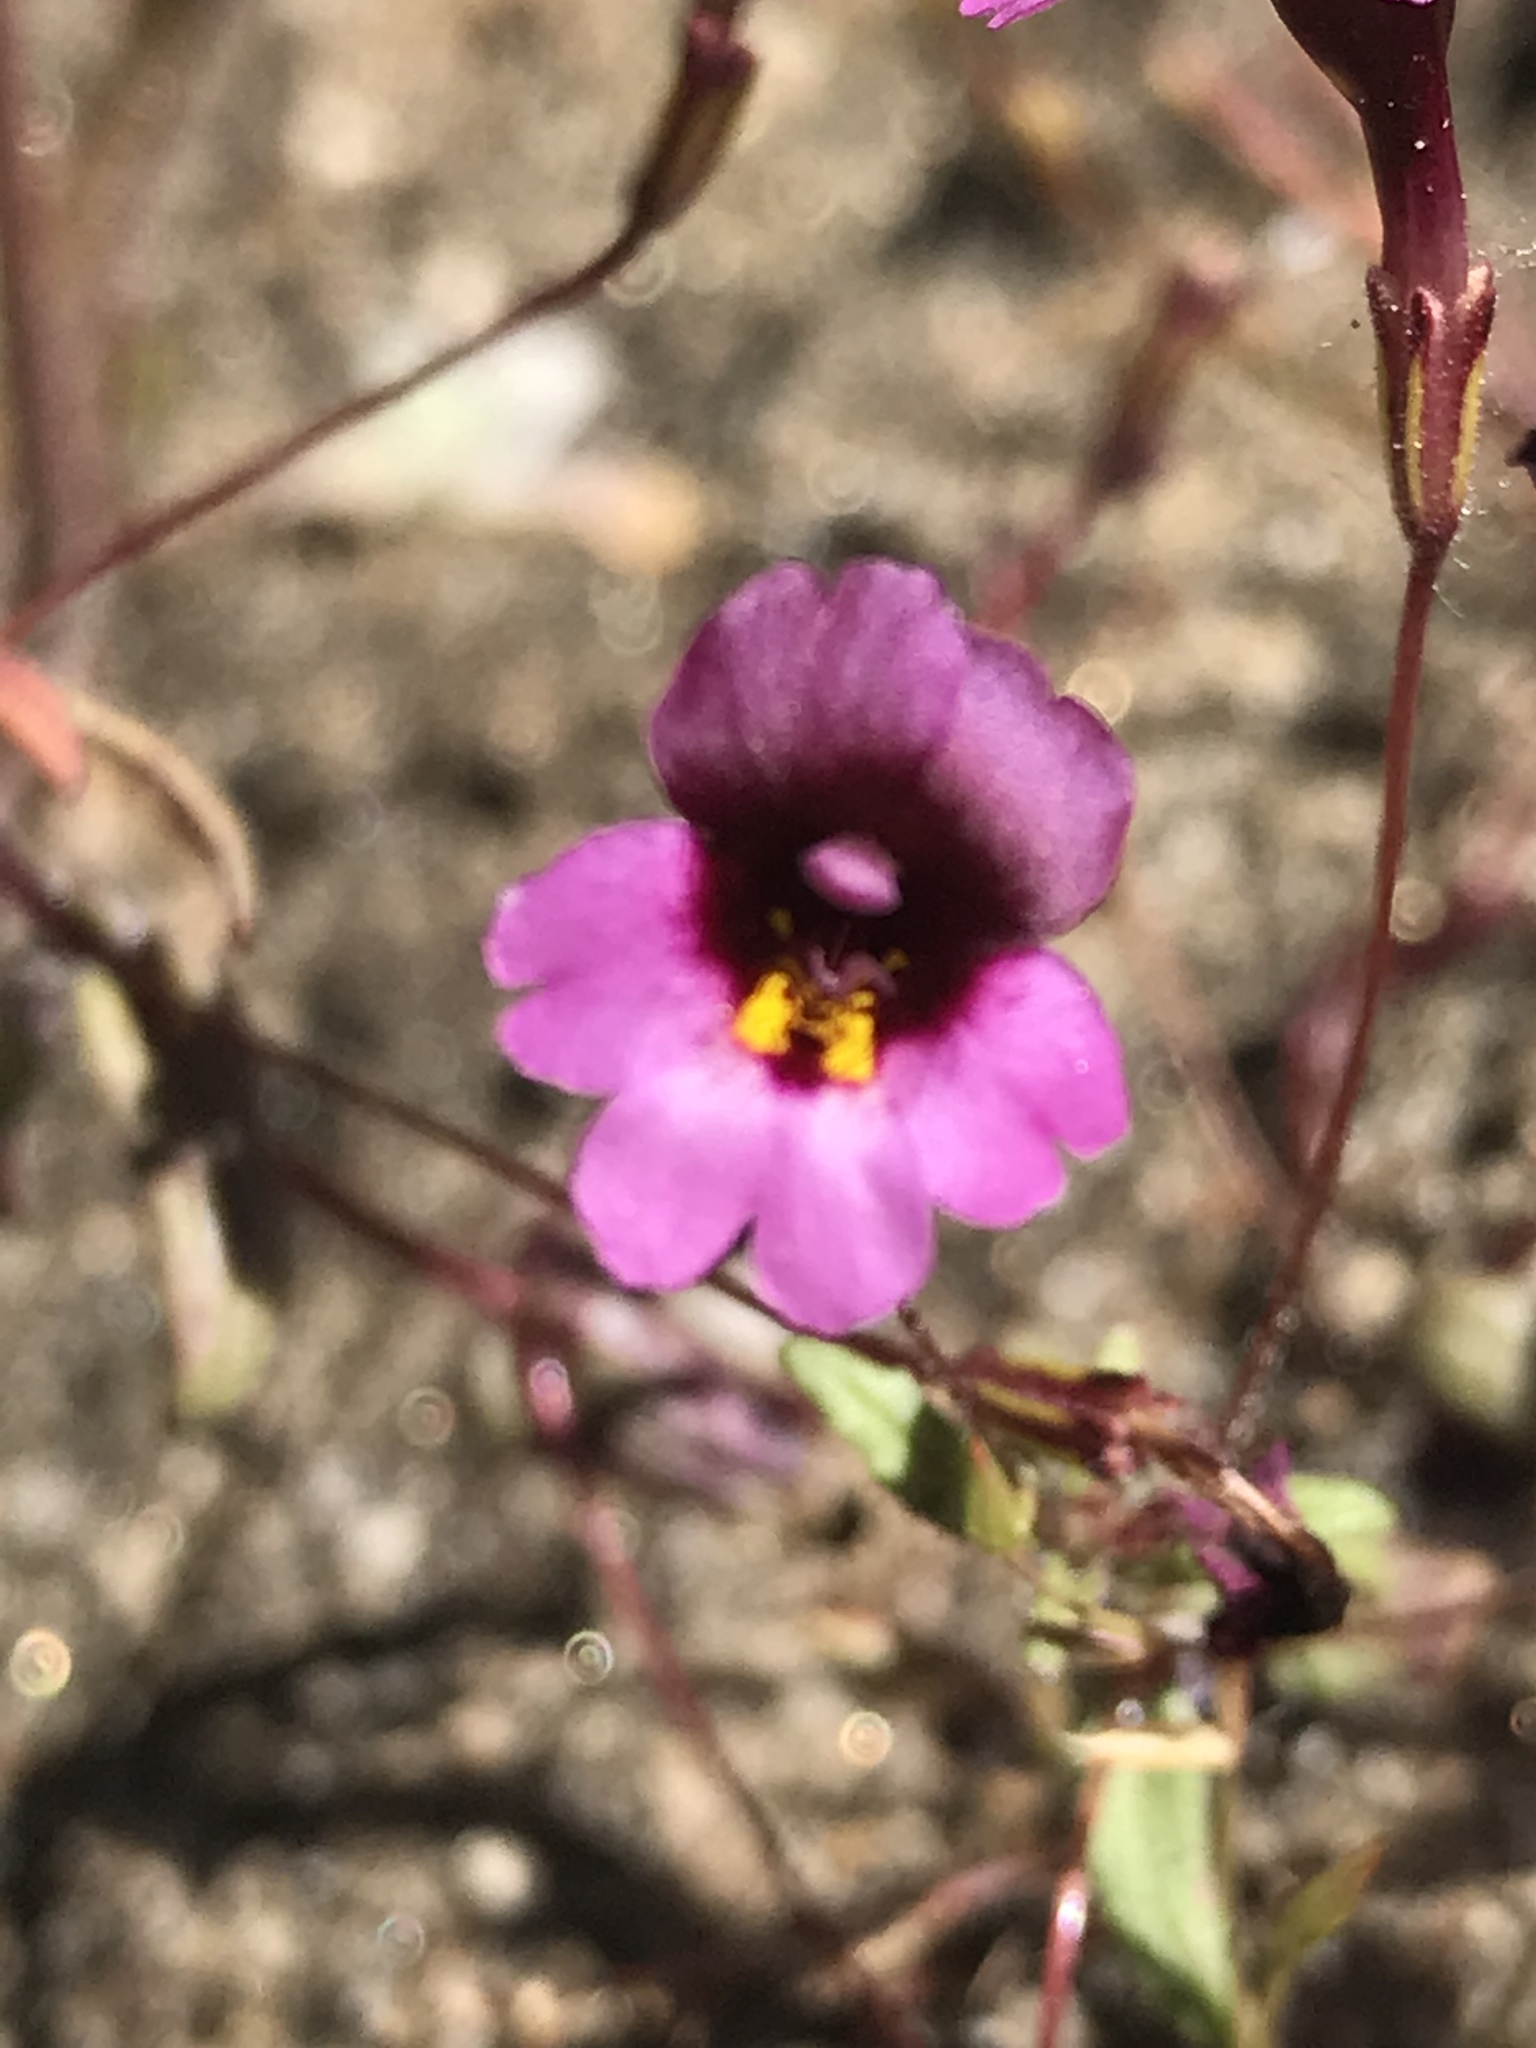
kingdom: Plantae
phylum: Tracheophyta
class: Magnoliopsida
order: Lamiales
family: Phrymaceae
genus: Erythranthe
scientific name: Erythranthe diffusa
